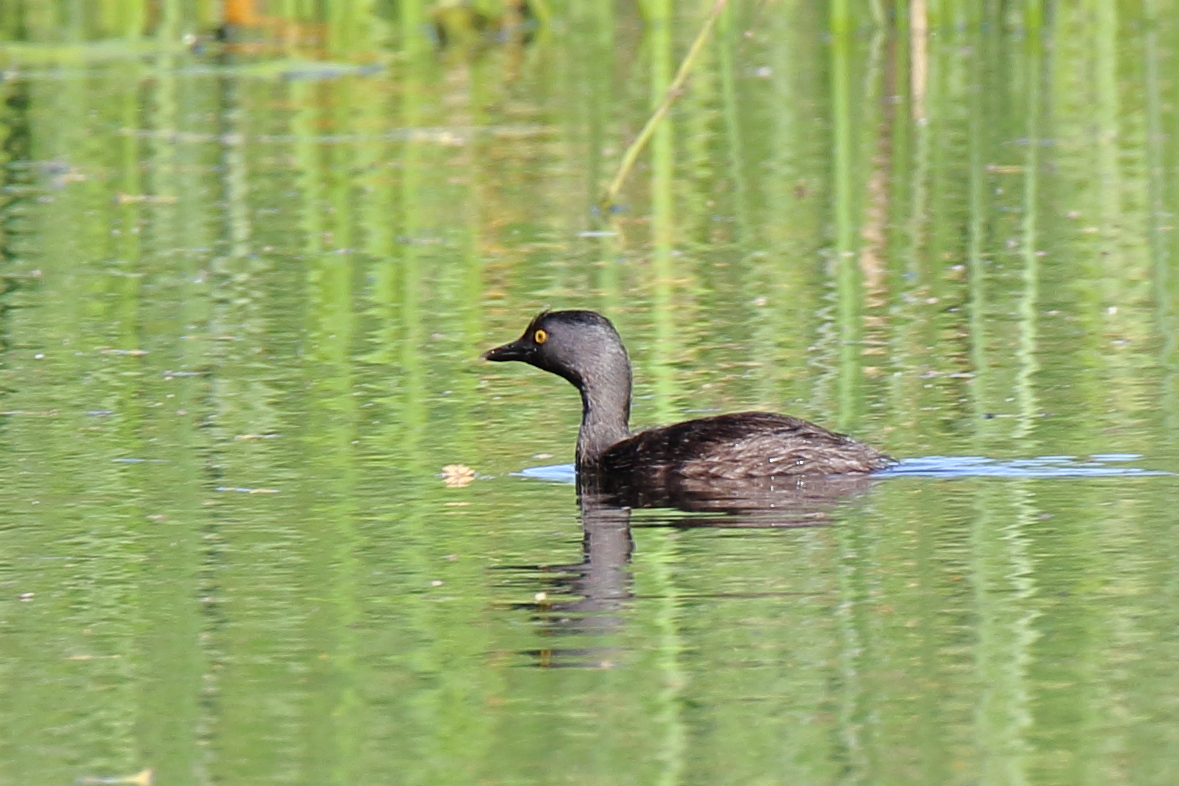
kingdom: Animalia
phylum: Chordata
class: Aves
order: Podicipediformes
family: Podicipedidae
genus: Tachybaptus
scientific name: Tachybaptus dominicus
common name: Least grebe
